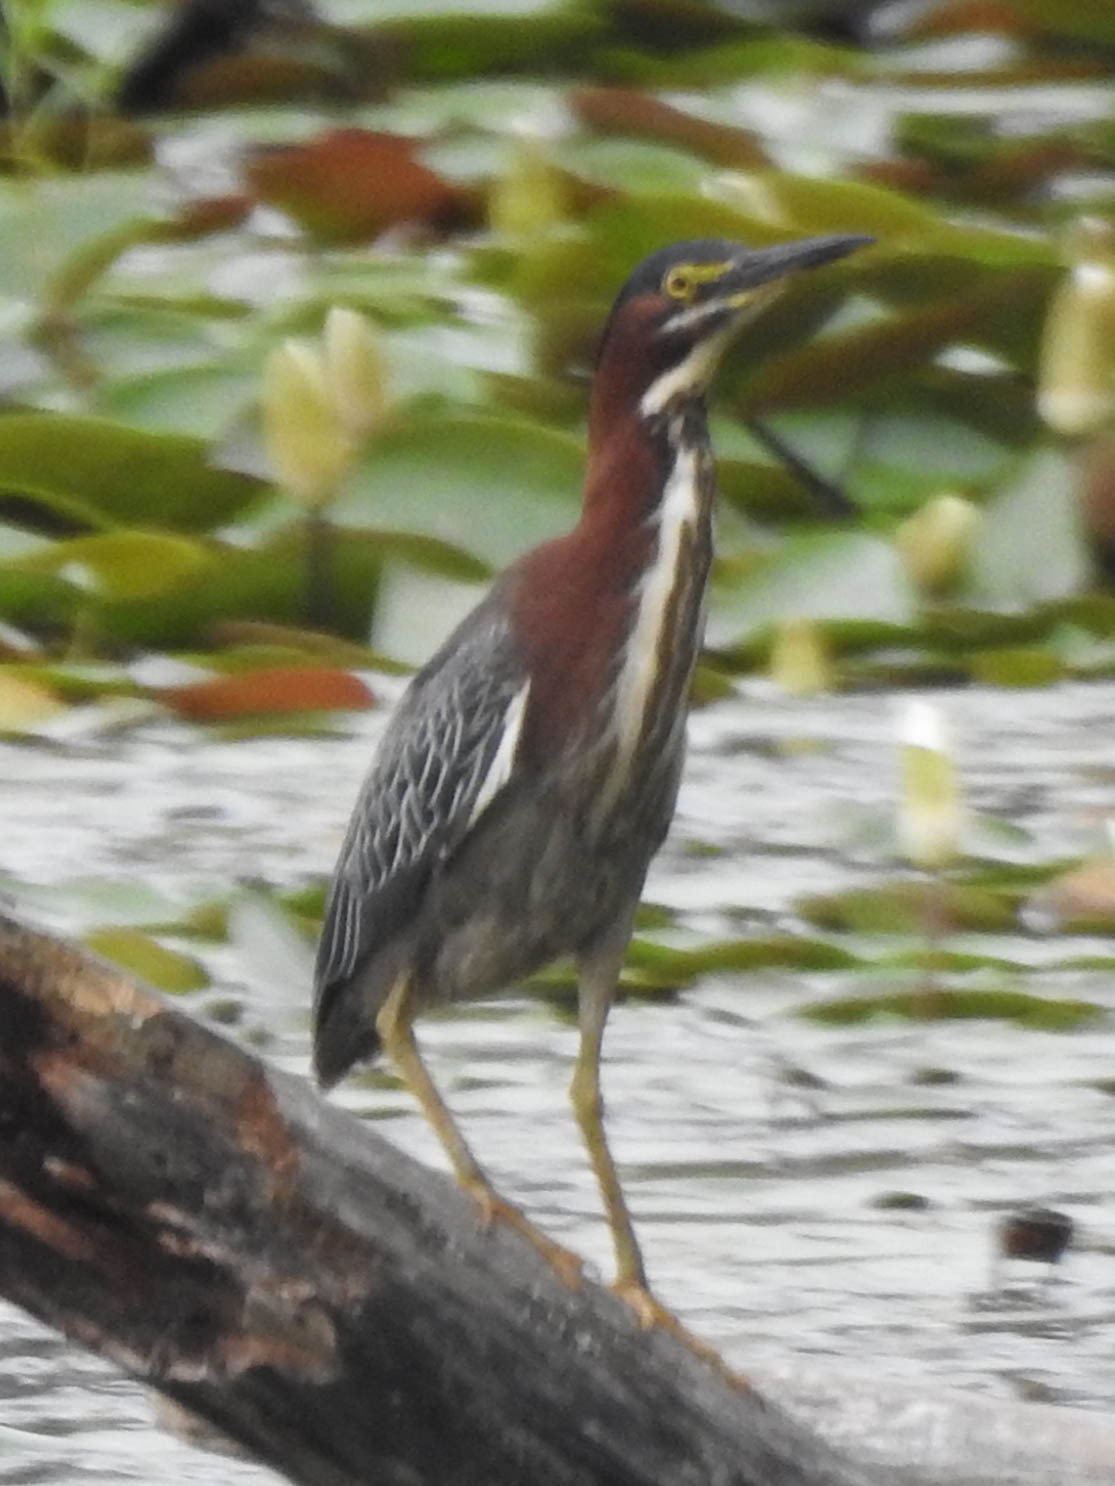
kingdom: Animalia
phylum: Chordata
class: Aves
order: Pelecaniformes
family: Ardeidae
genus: Butorides
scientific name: Butorides virescens
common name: Green heron
